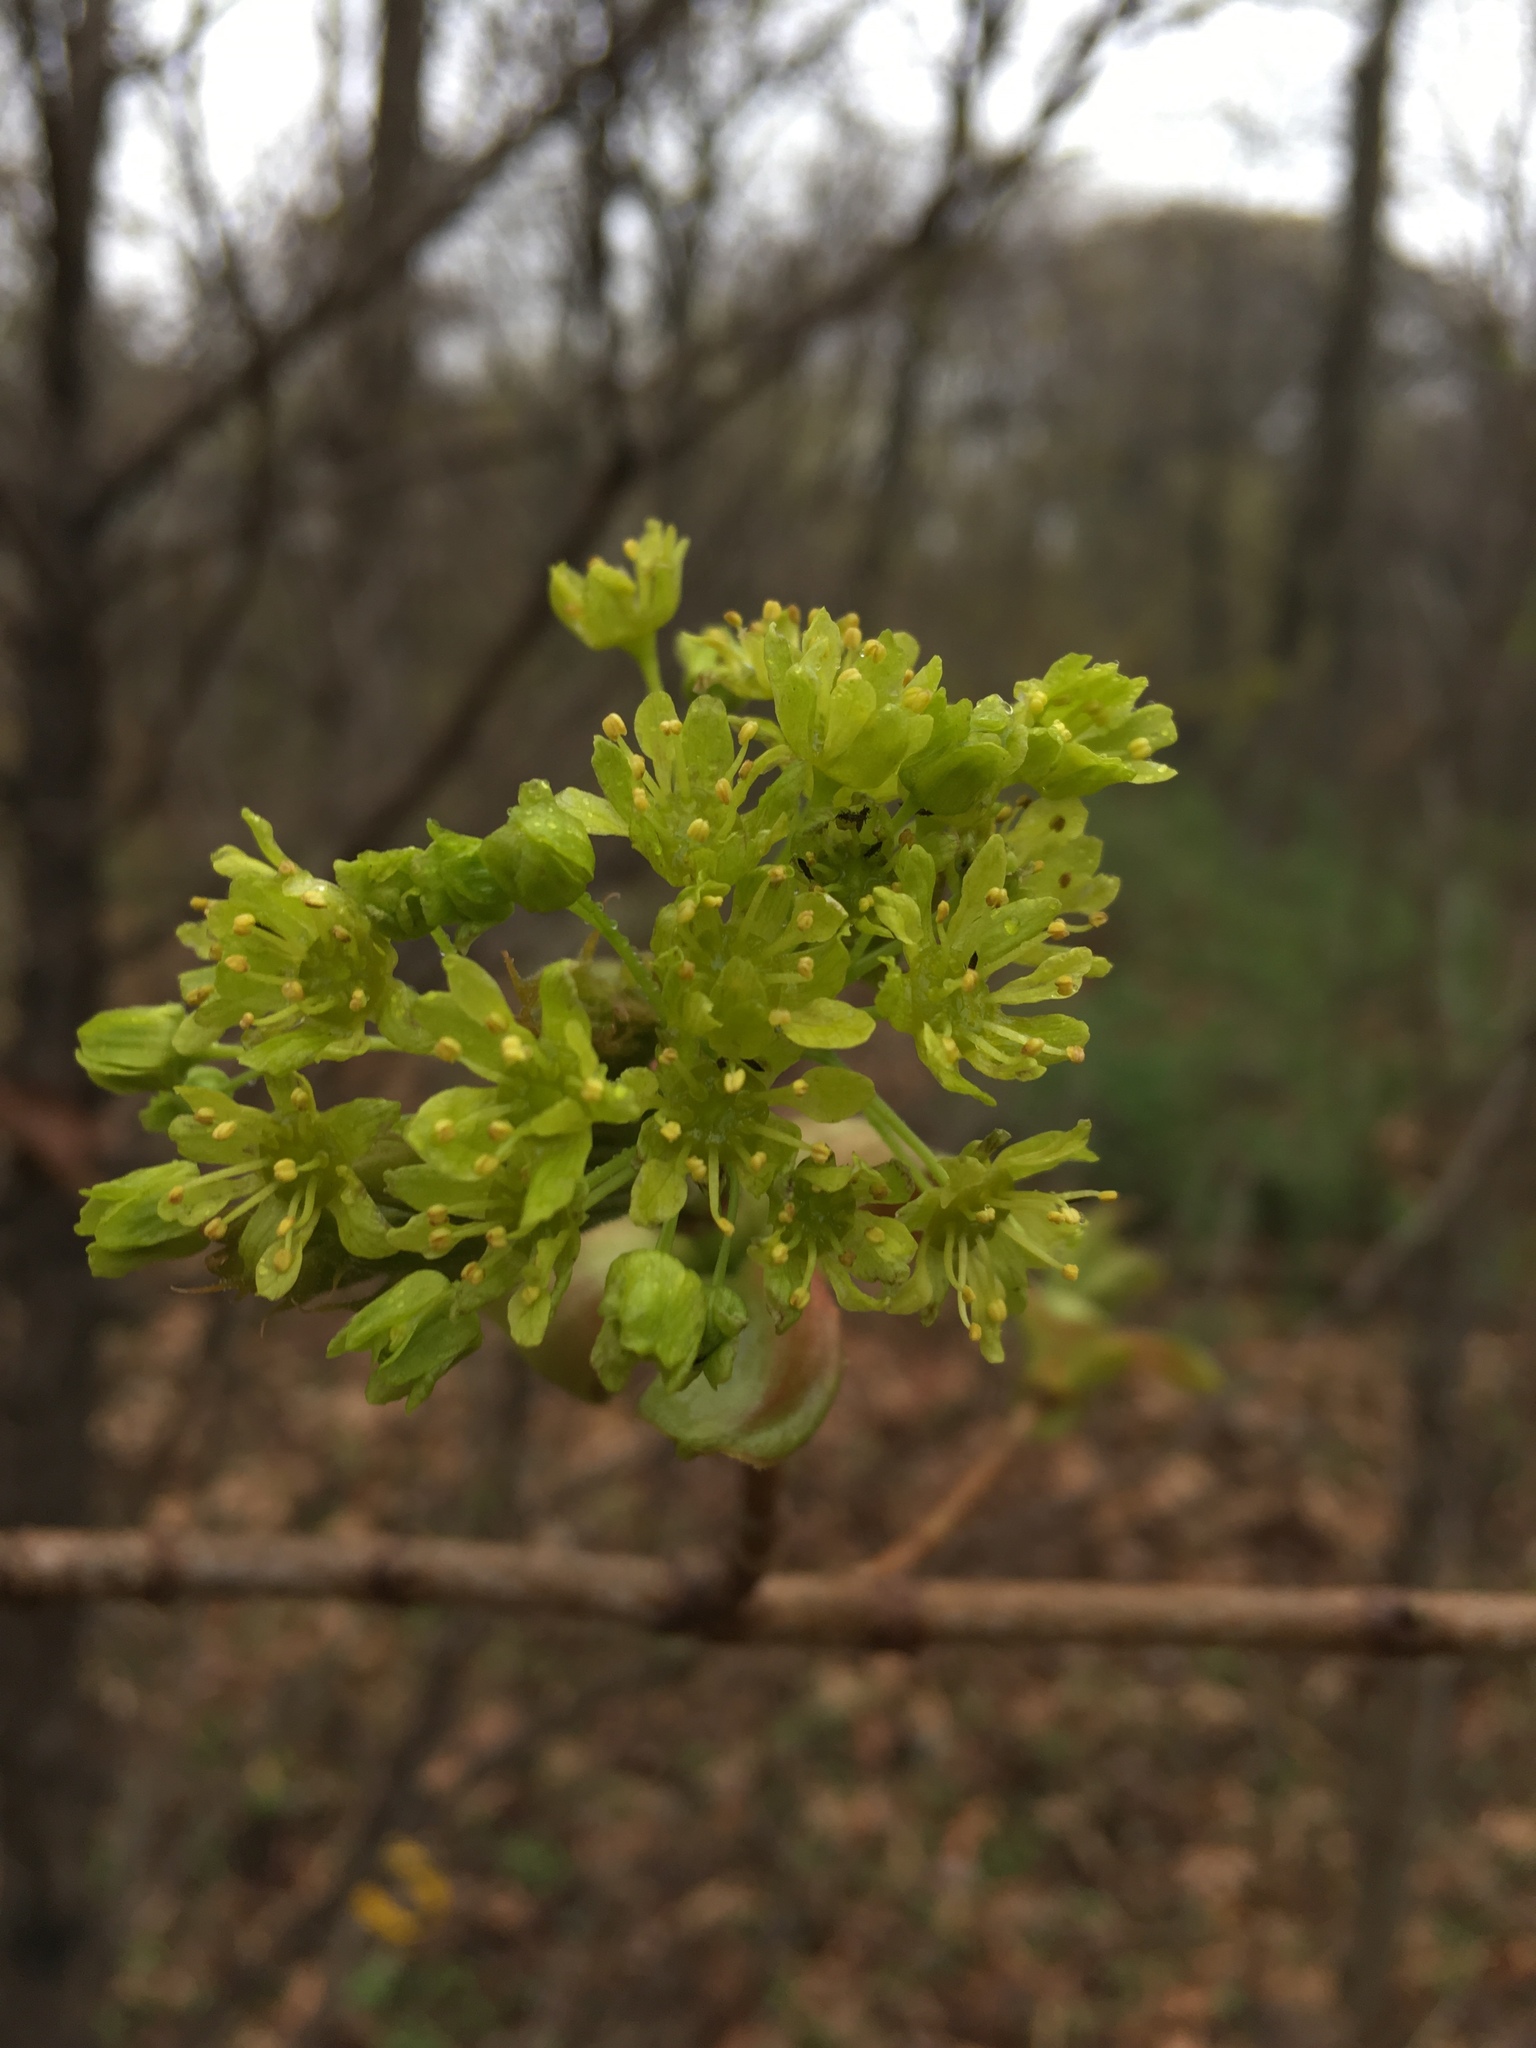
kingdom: Plantae
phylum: Tracheophyta
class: Magnoliopsida
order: Sapindales
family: Sapindaceae
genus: Acer
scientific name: Acer platanoides
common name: Norway maple
